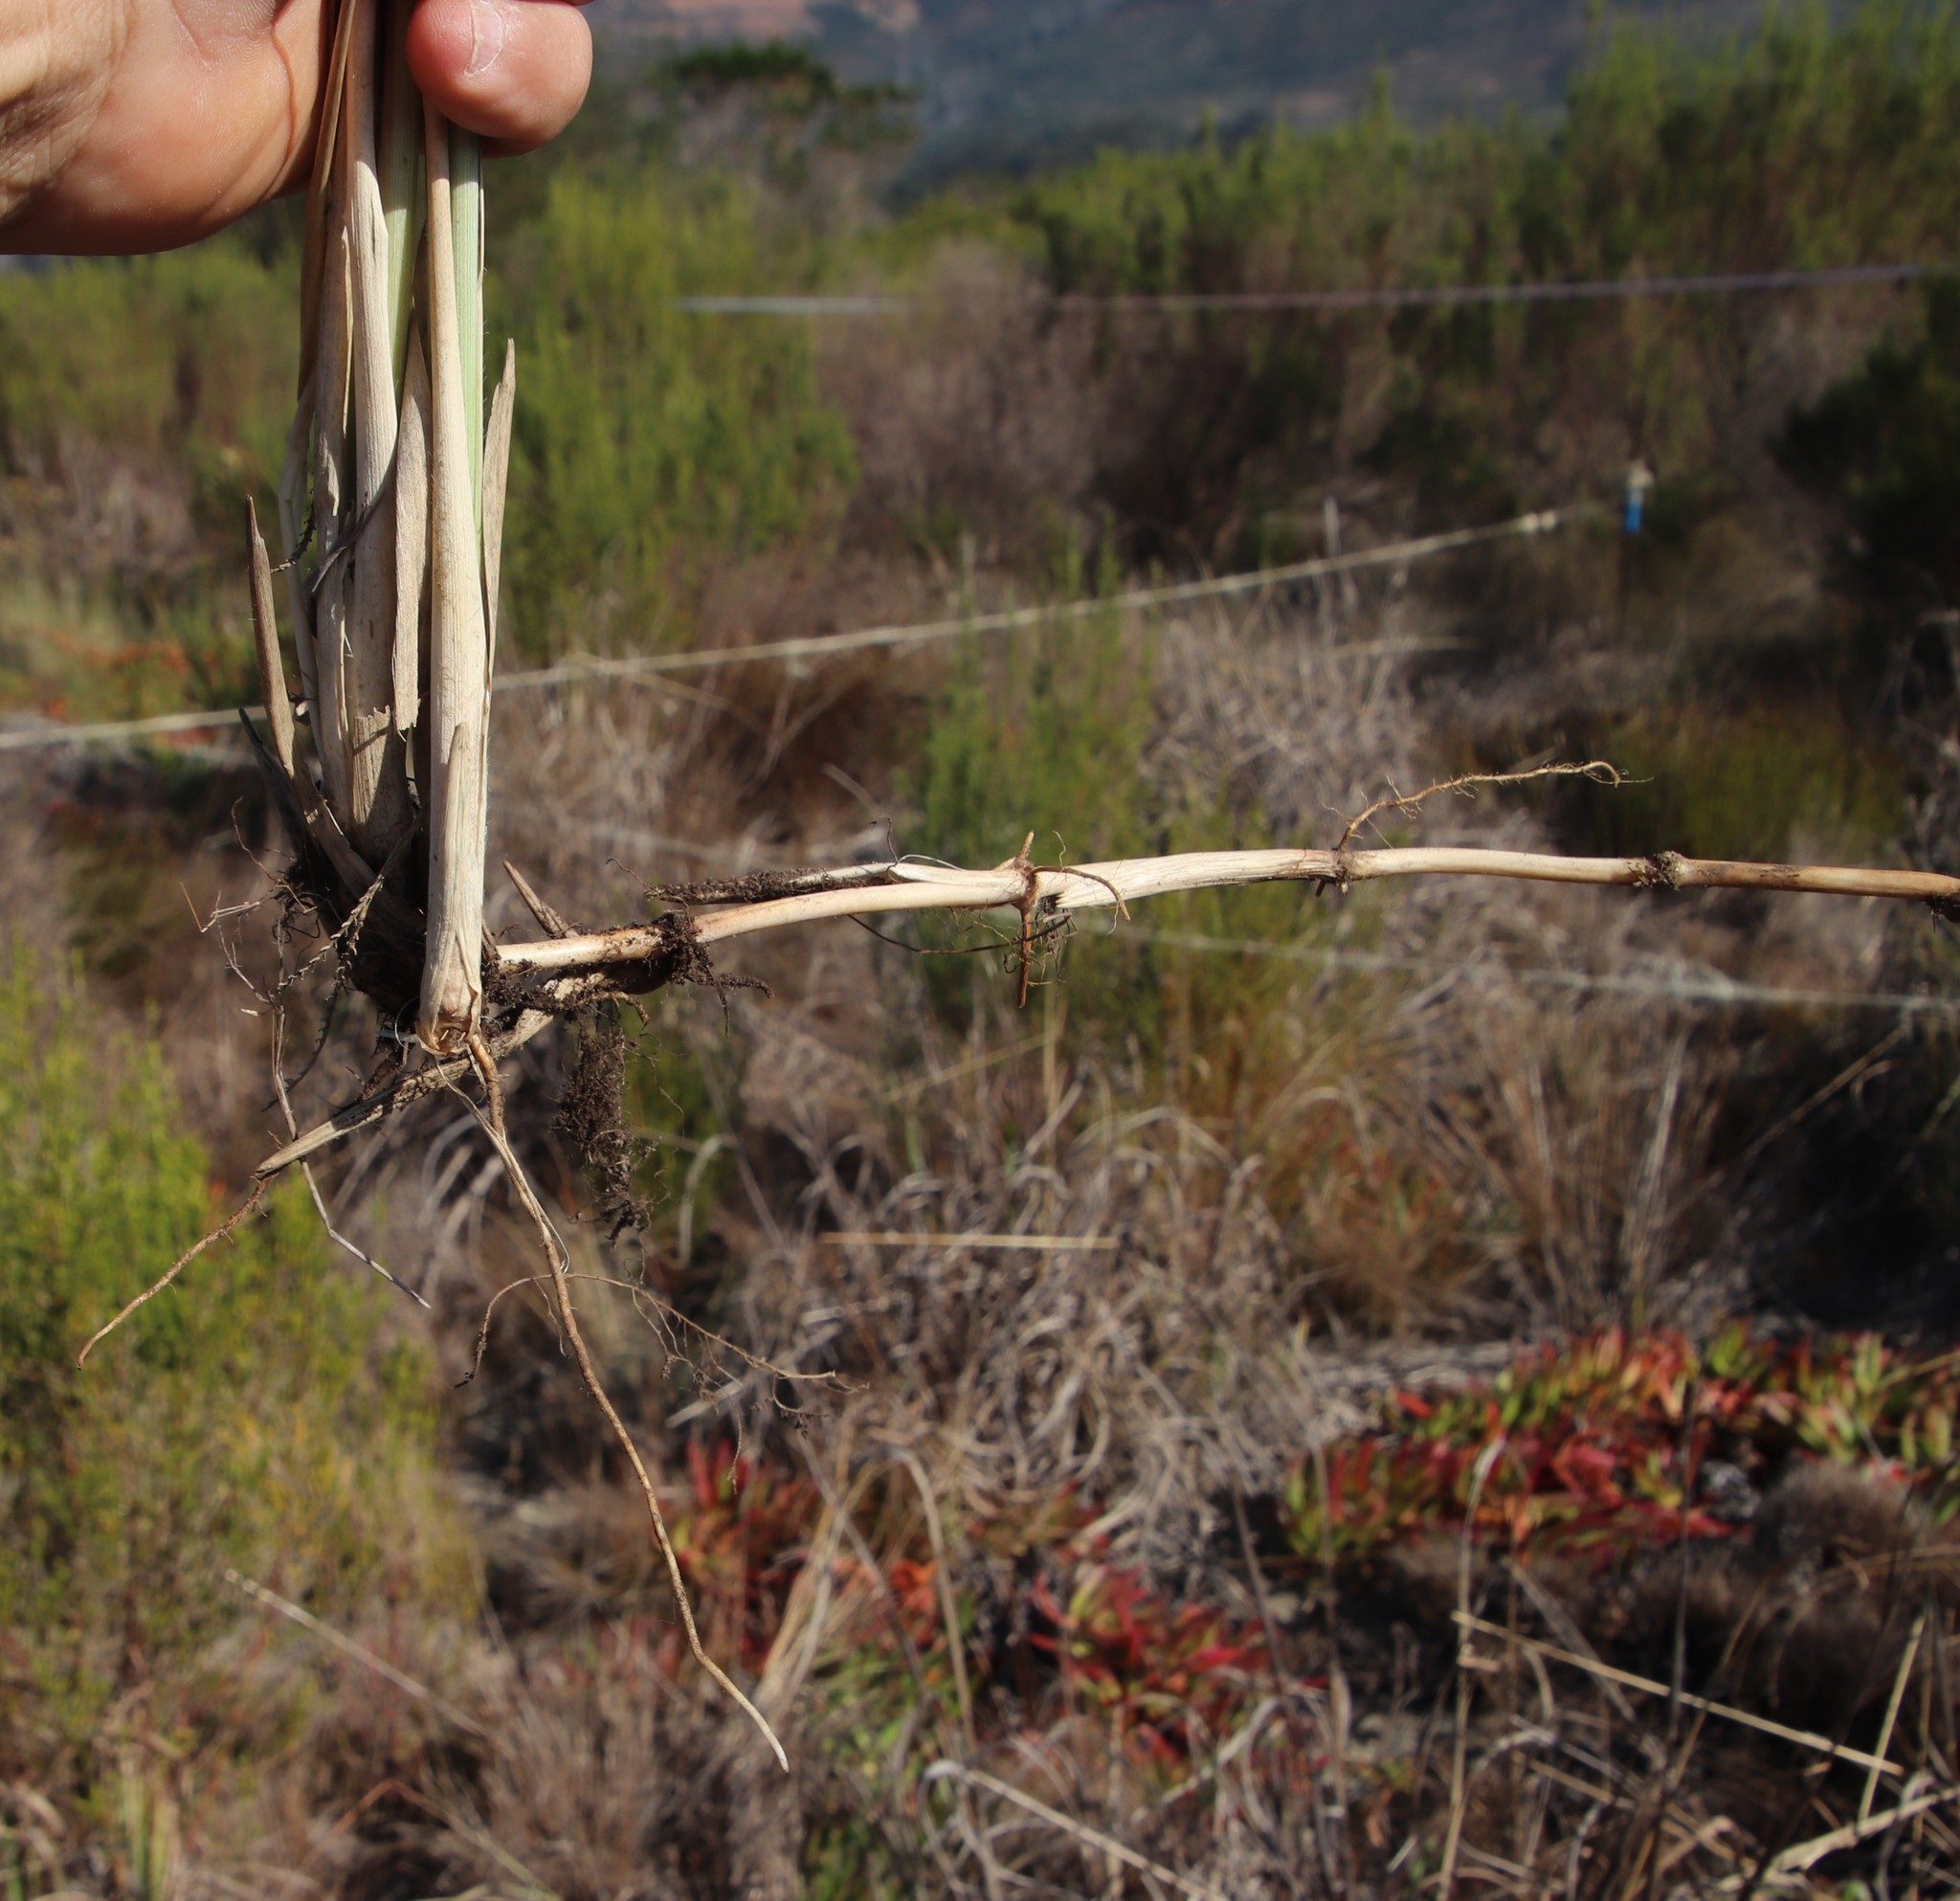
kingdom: Plantae
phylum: Tracheophyta
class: Liliopsida
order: Poales
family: Poaceae
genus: Paspalum
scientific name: Paspalum dilatatum
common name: Dallisgrass
